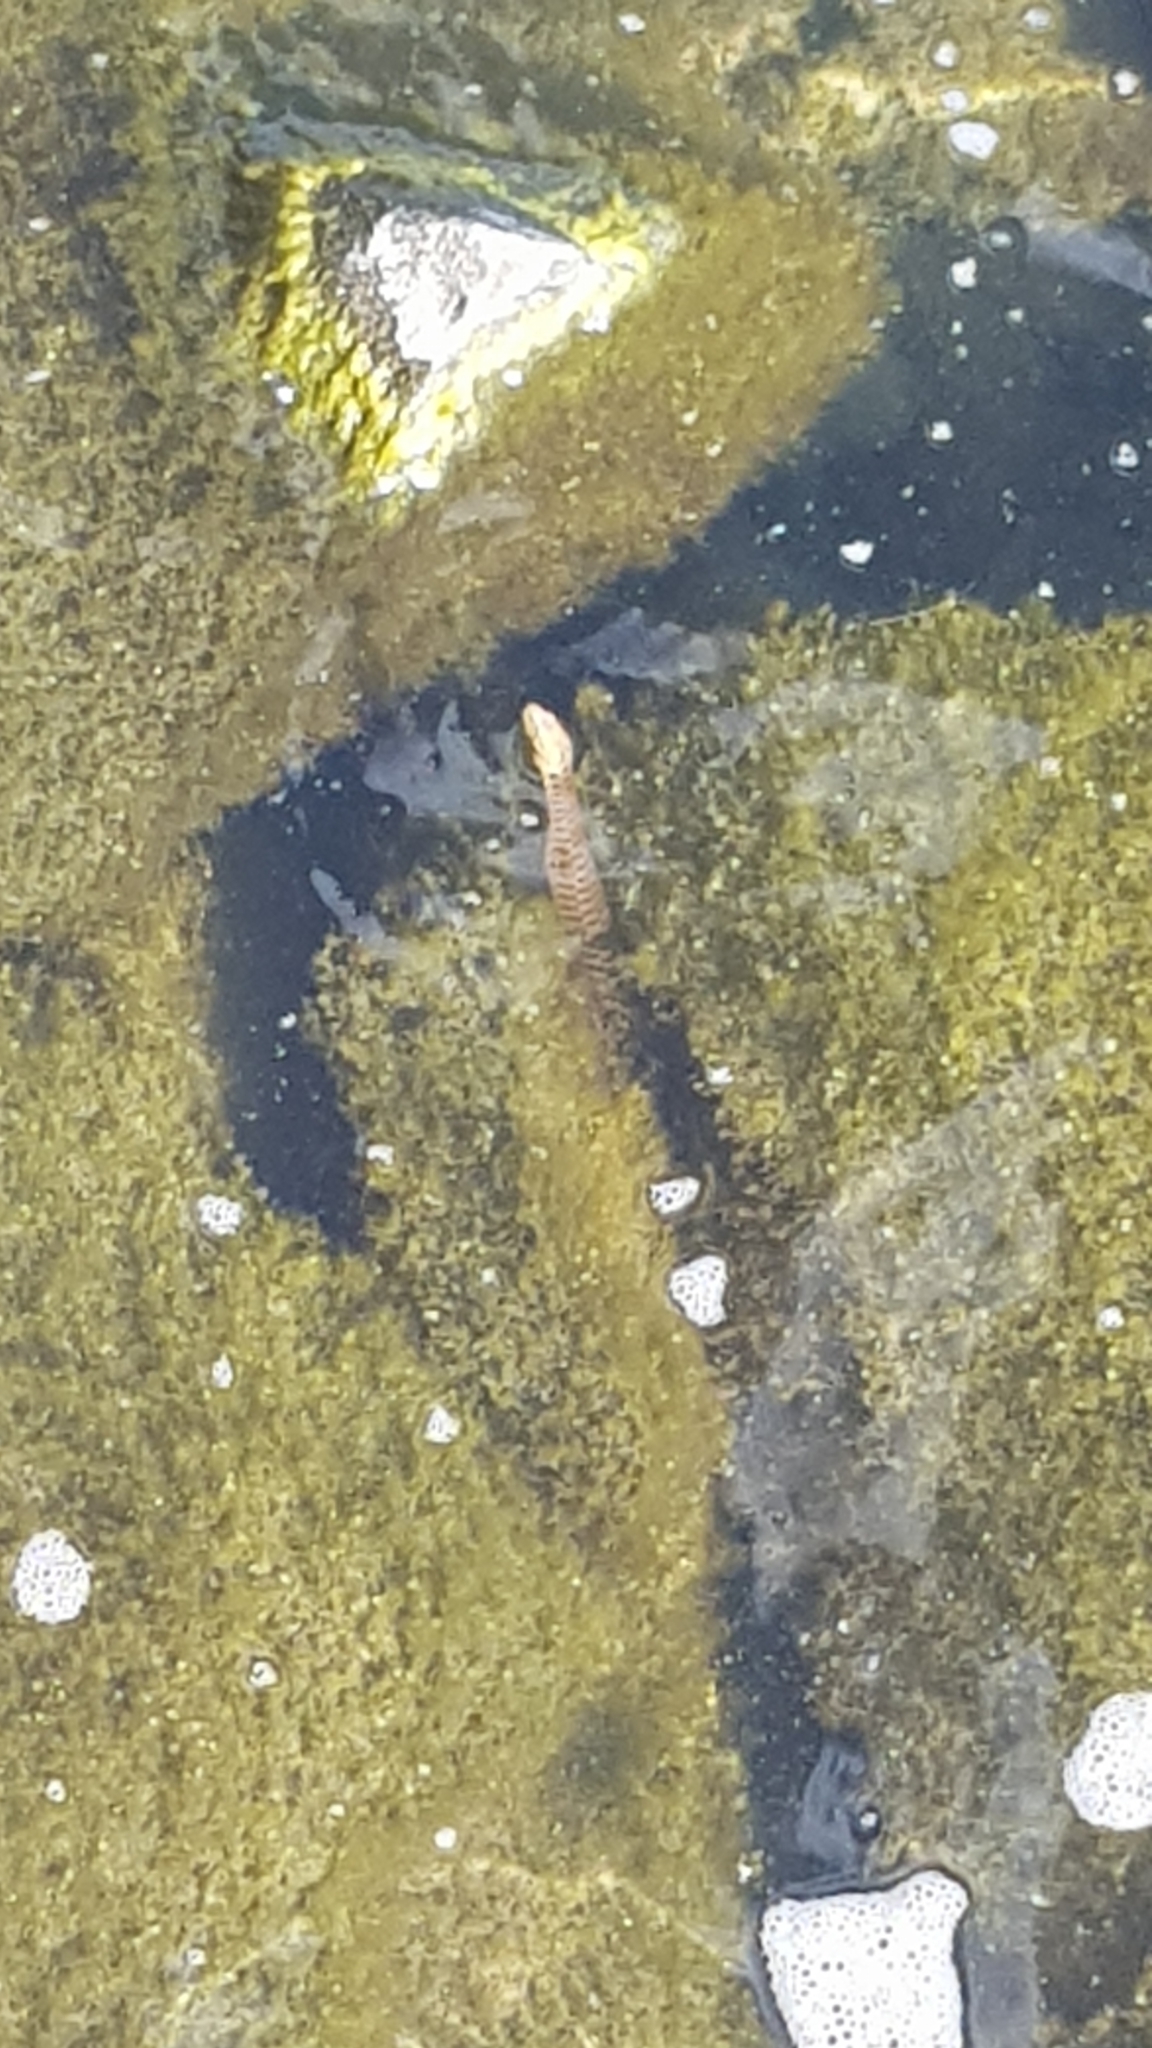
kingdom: Animalia
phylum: Chordata
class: Squamata
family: Colubridae
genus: Natrix
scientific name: Natrix tessellata
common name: Dice snake
